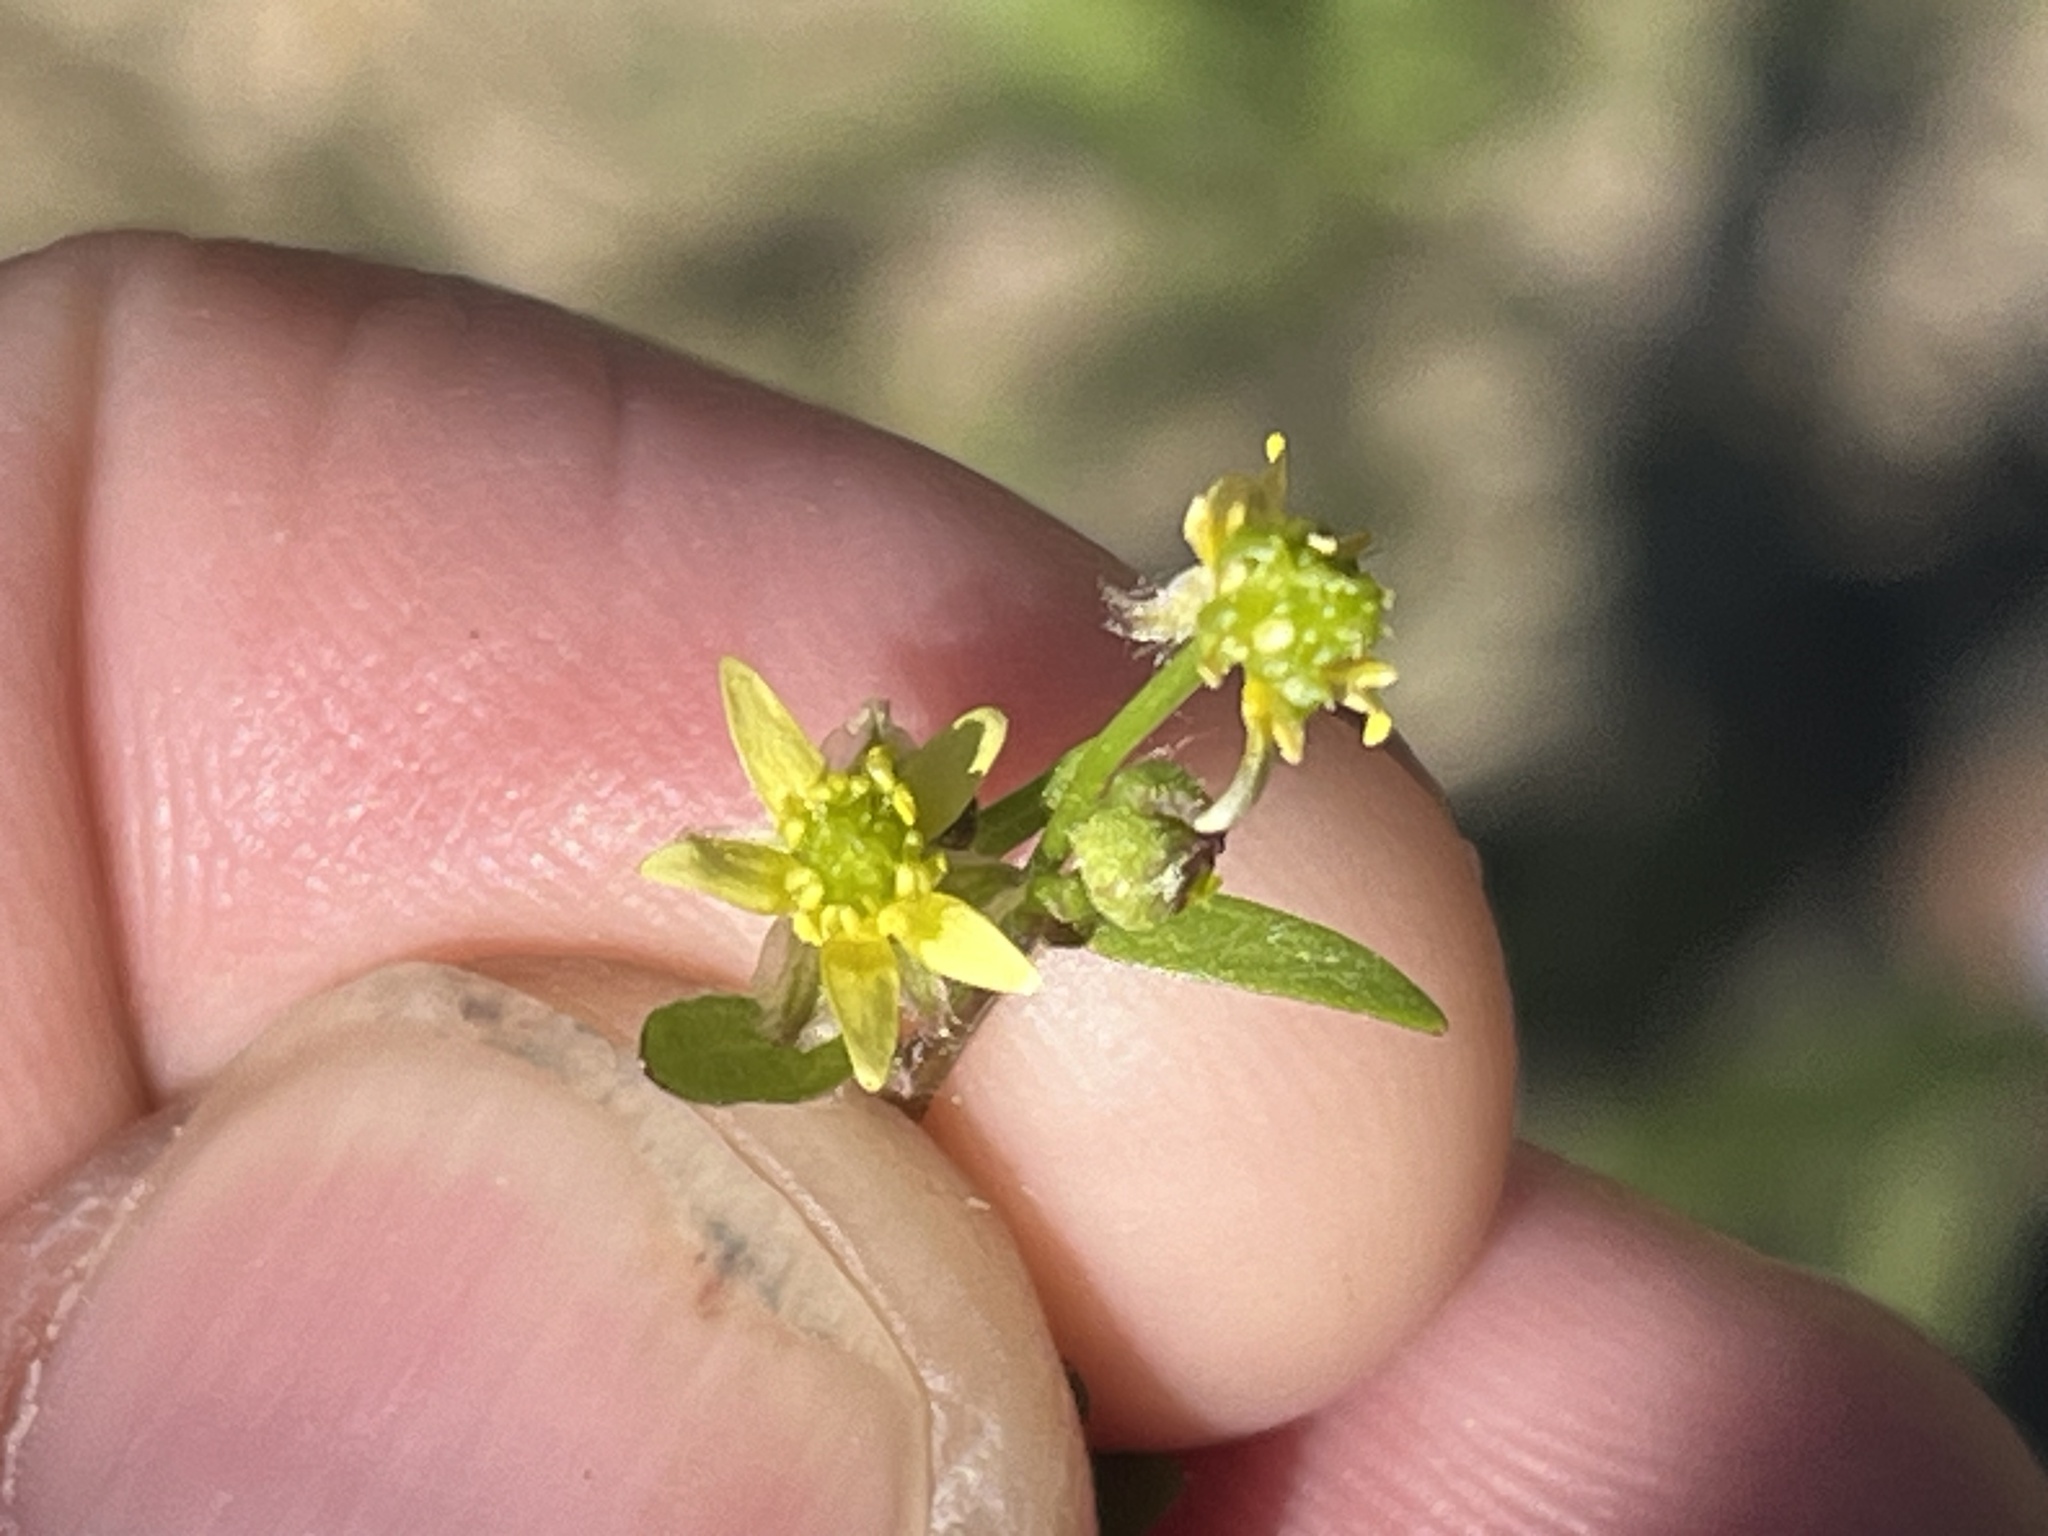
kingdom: Plantae
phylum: Tracheophyta
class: Magnoliopsida
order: Ranunculales
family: Ranunculaceae
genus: Ranunculus
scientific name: Ranunculus micranthus
